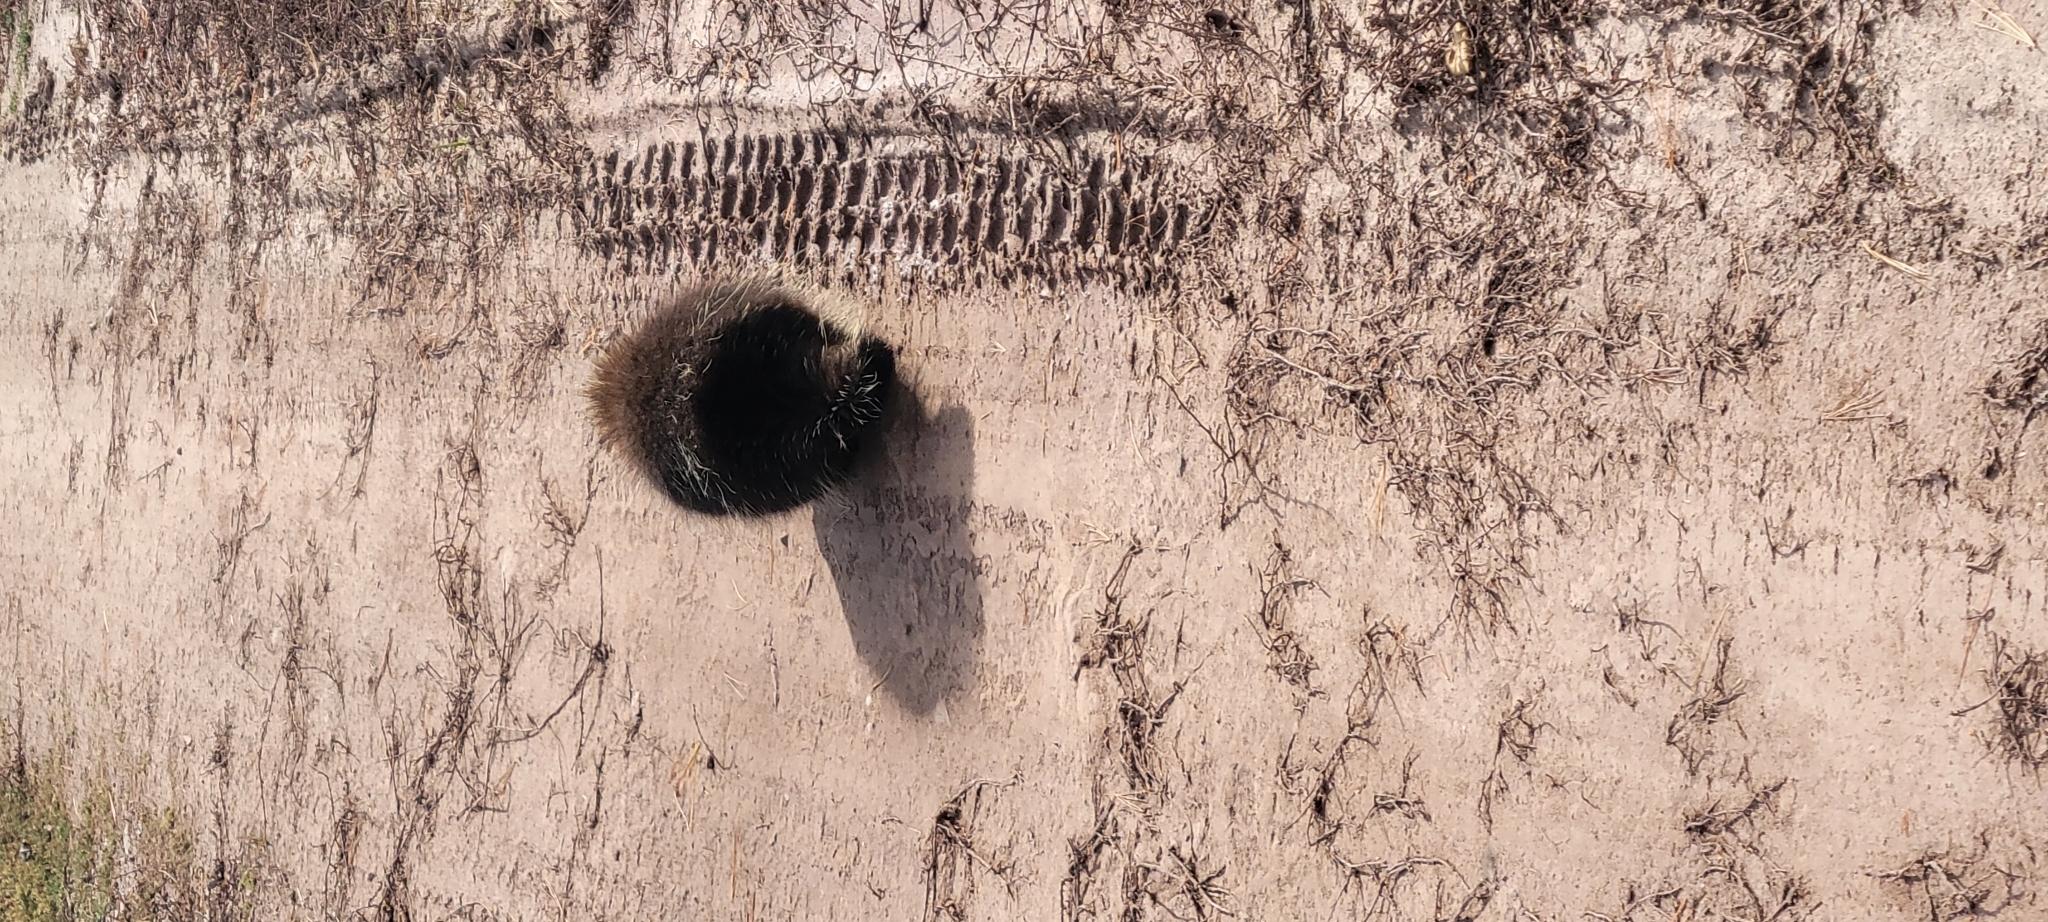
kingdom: Animalia
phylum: Chordata
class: Mammalia
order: Rodentia
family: Erethizontidae
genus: Erethizon
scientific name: Erethizon dorsatus
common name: North american porcupine
